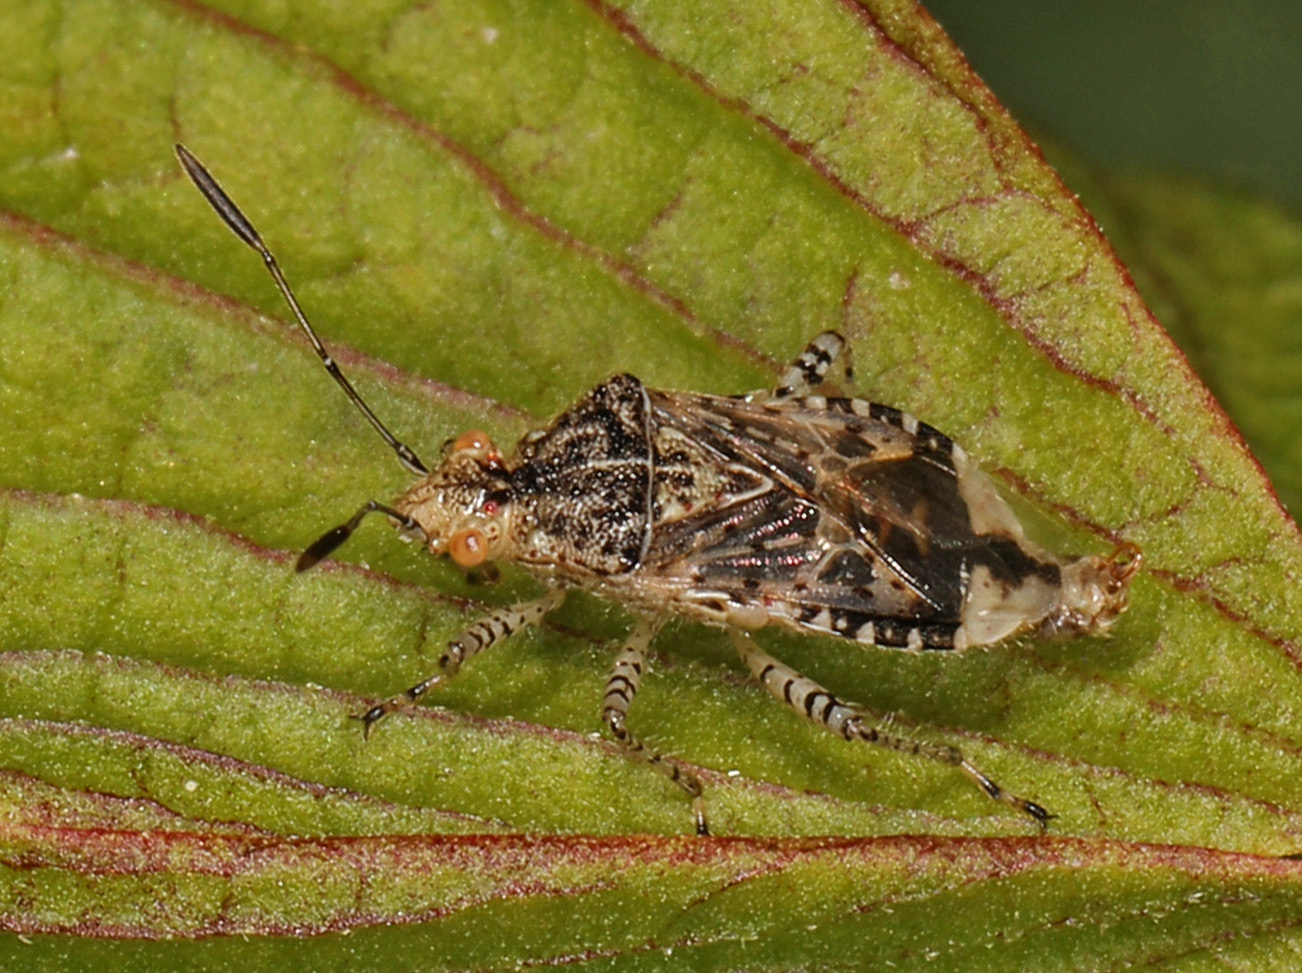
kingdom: Animalia
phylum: Arthropoda
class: Insecta
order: Hemiptera
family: Rhopalidae
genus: Niesthrea
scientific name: Niesthrea louisianica
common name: Scentless plant bug
